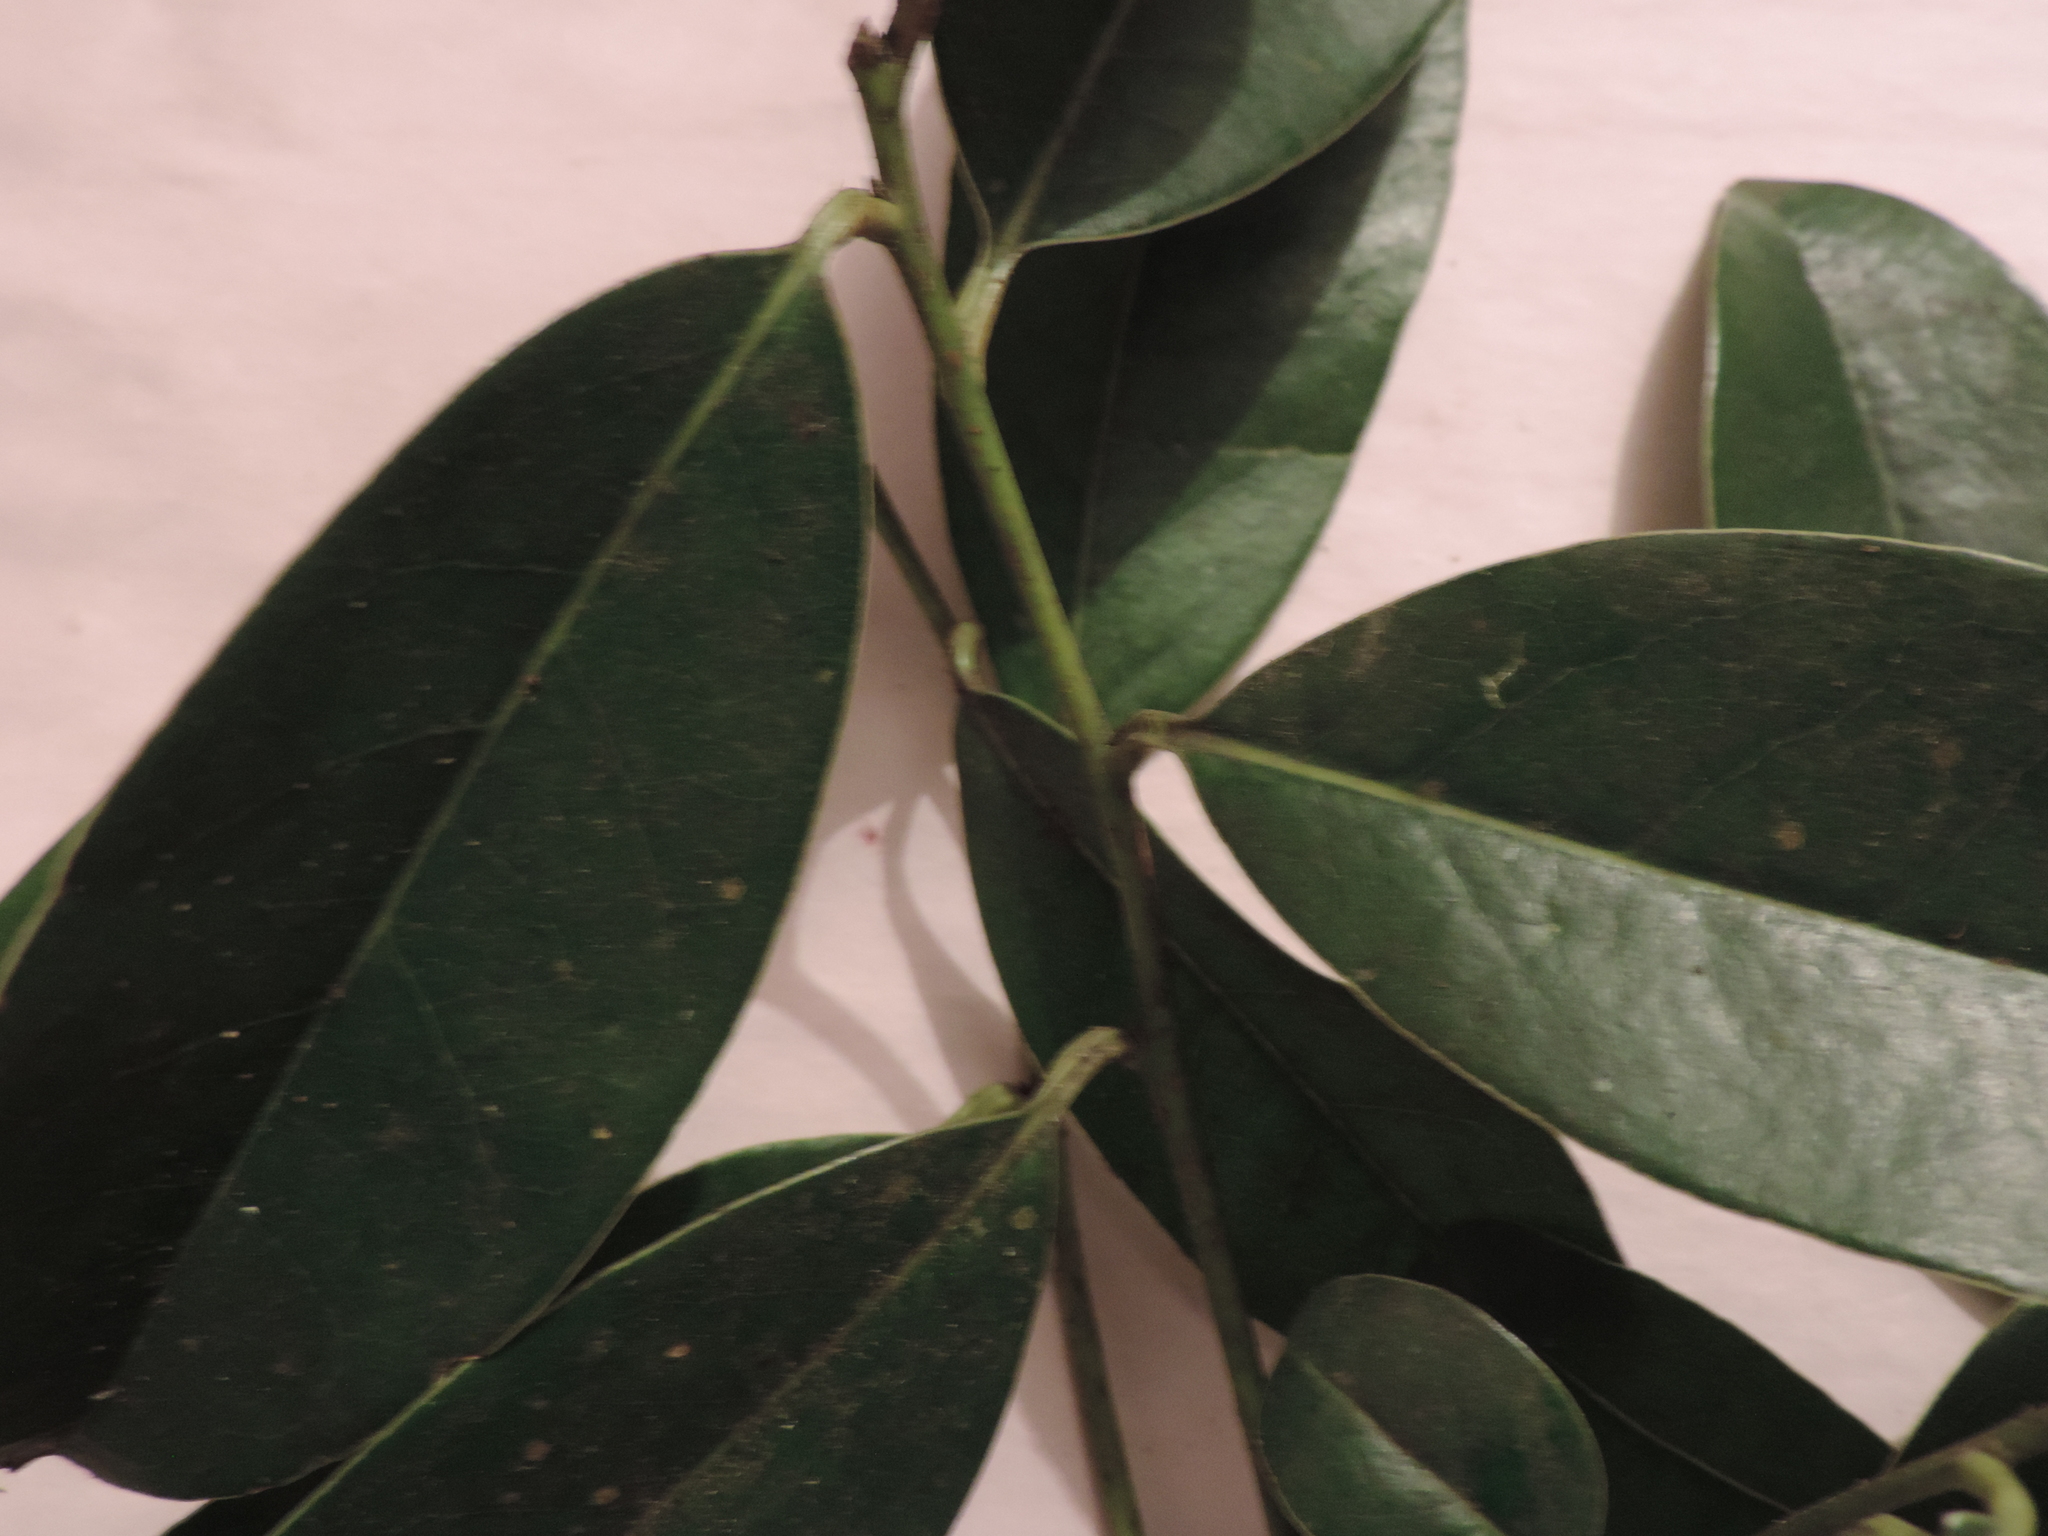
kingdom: Plantae
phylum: Tracheophyta
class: Magnoliopsida
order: Malvales
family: Thymelaeaceae
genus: Daphnopsis
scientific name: Daphnopsis caracasana
